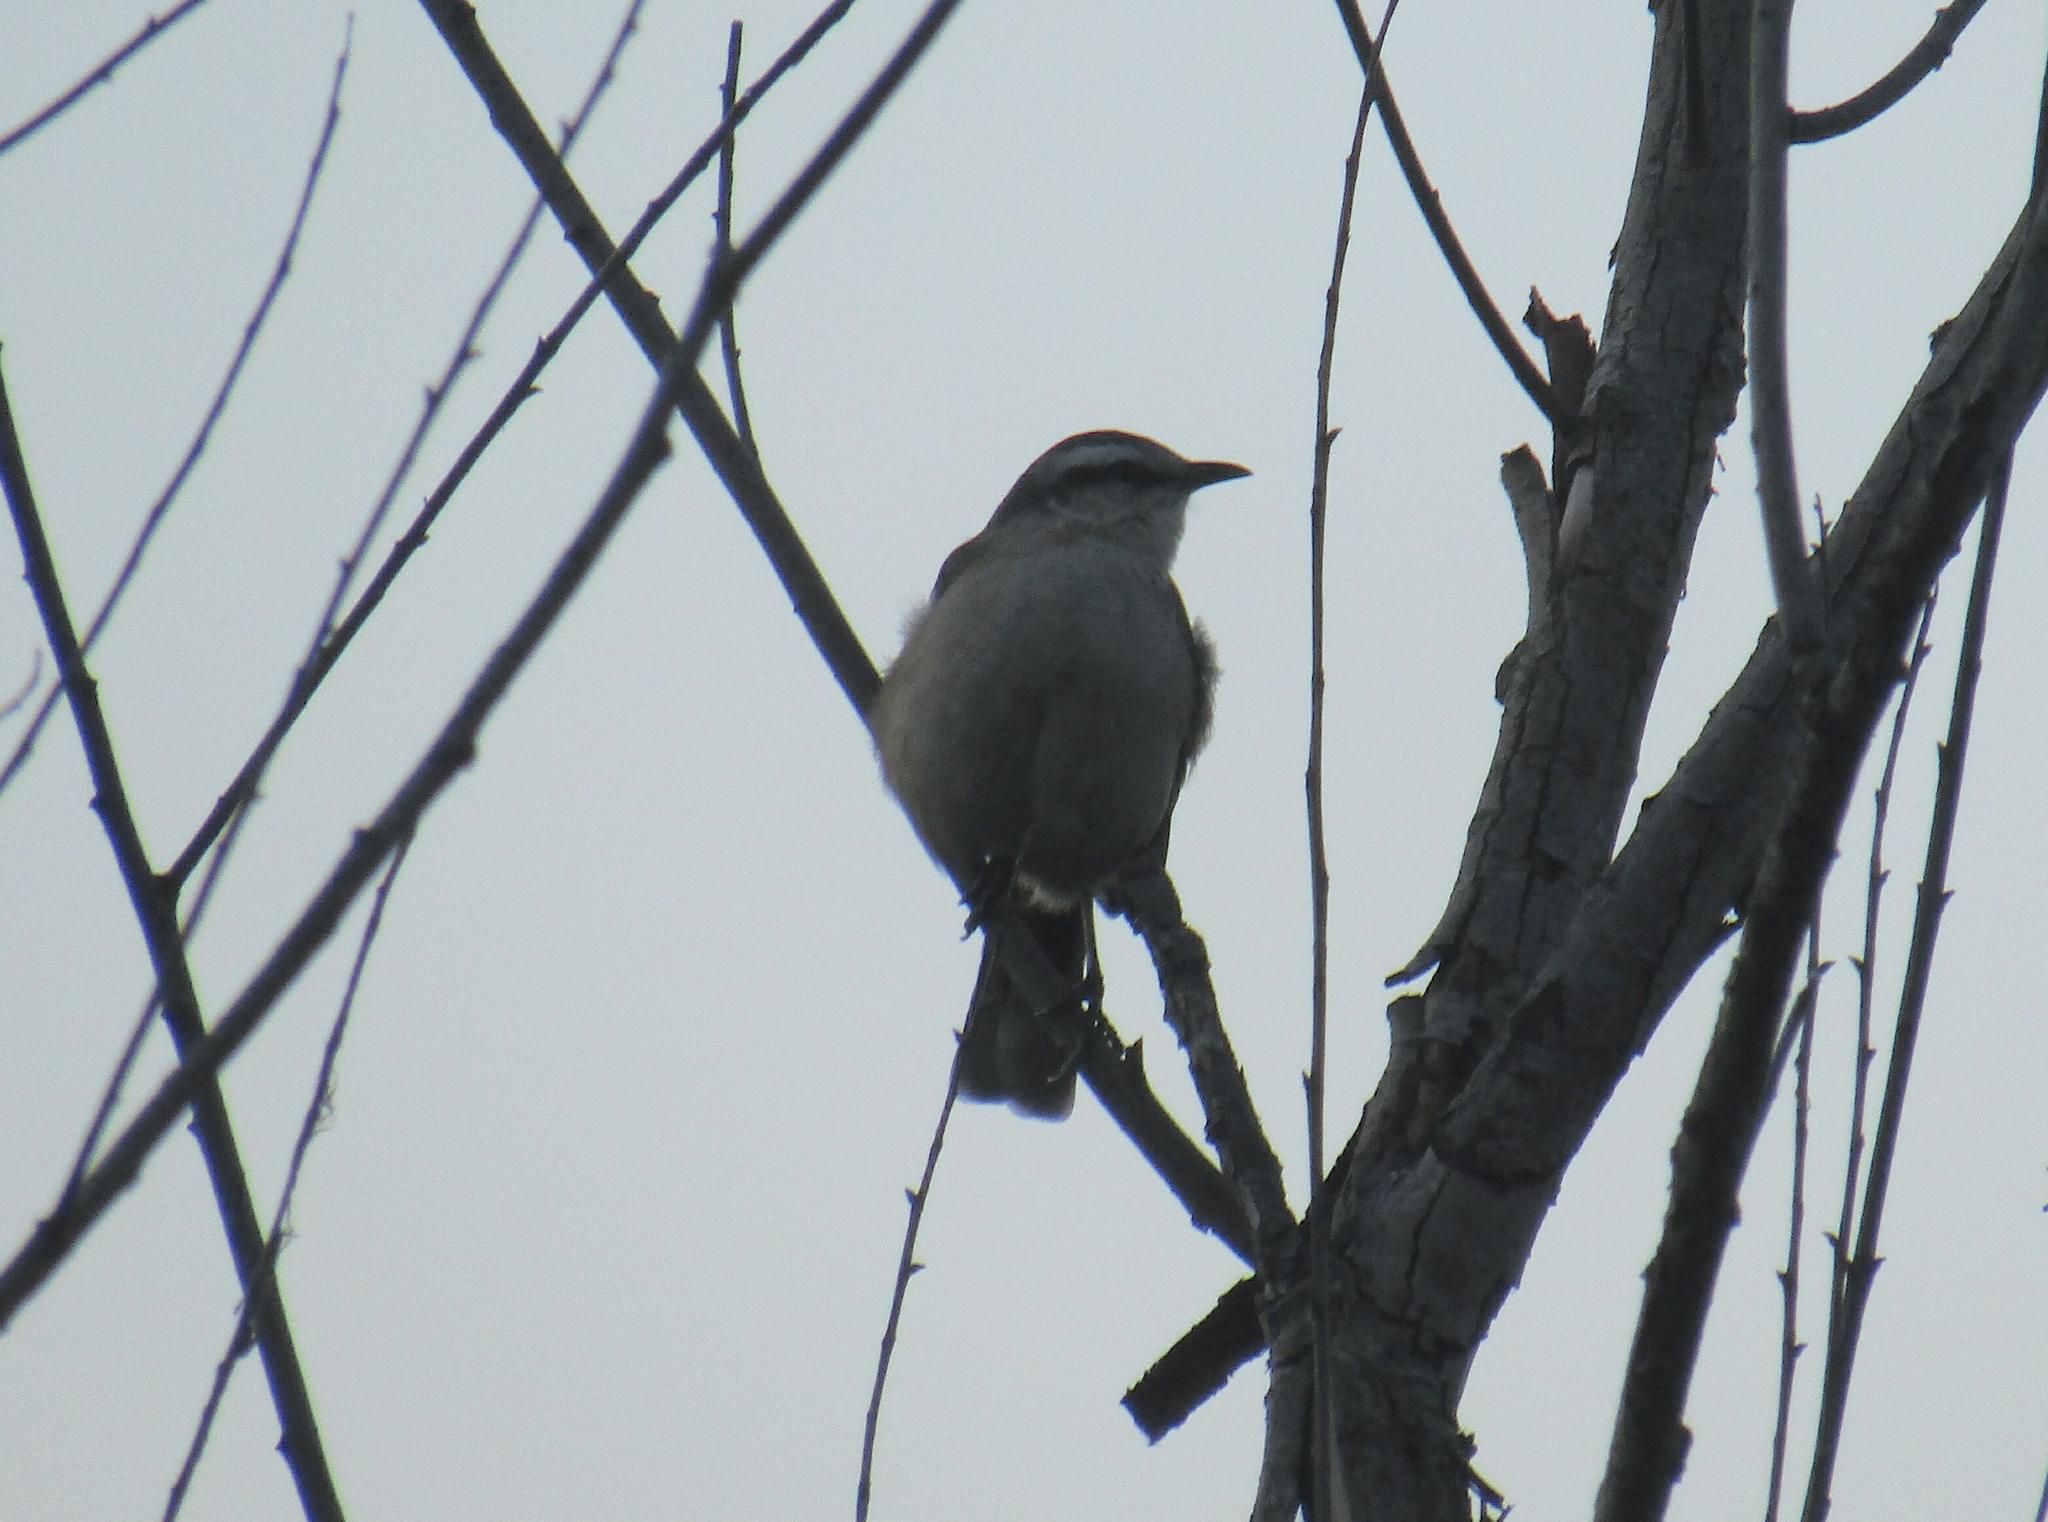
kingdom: Animalia
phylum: Chordata
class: Aves
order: Passeriformes
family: Mimidae
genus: Mimus
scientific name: Mimus saturninus
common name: Chalk-browed mockingbird
